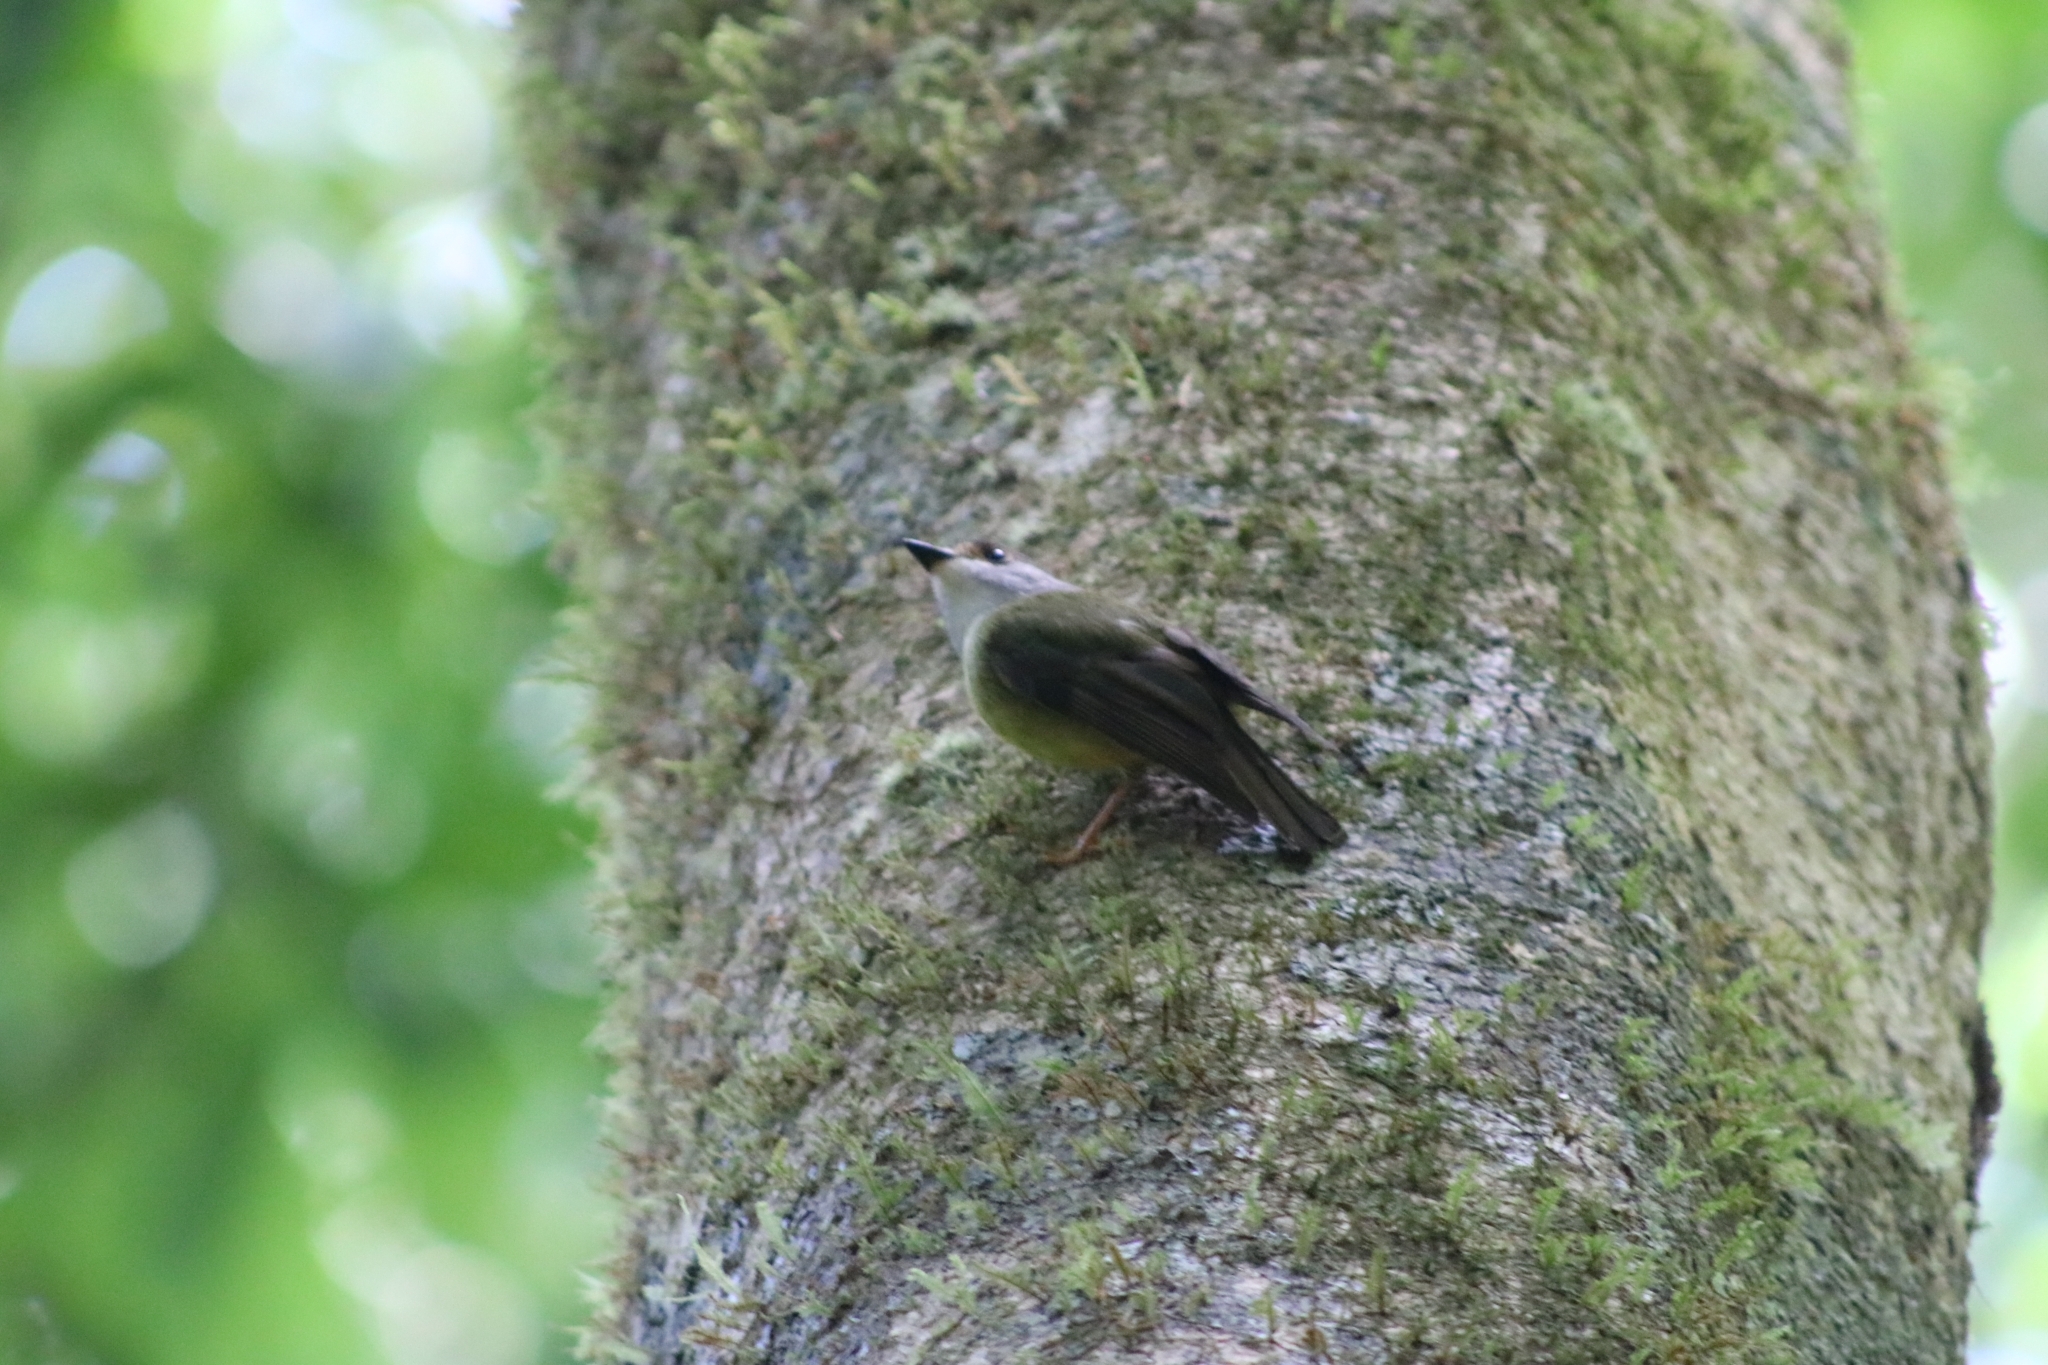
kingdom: Animalia
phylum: Chordata
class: Aves
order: Passeriformes
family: Petroicidae
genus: Eopsaltria
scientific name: Eopsaltria
